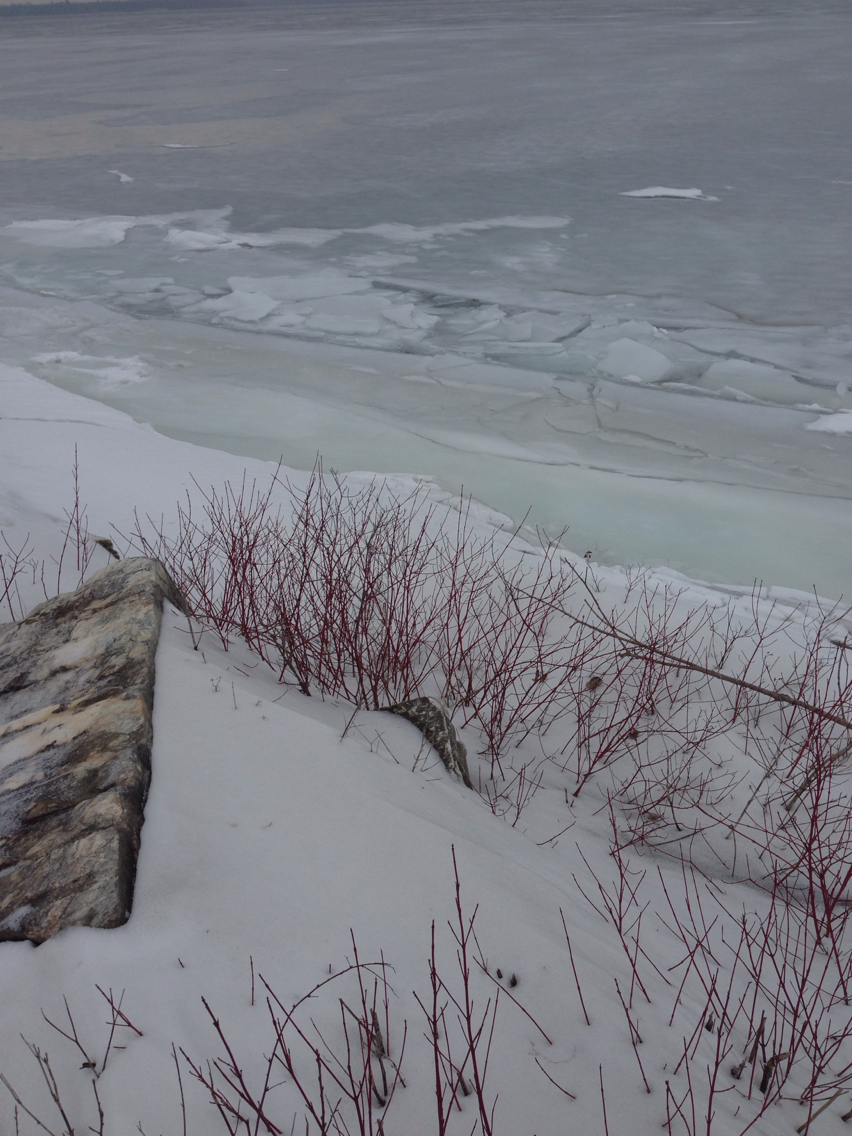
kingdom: Plantae
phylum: Tracheophyta
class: Magnoliopsida
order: Cornales
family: Cornaceae
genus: Cornus
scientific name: Cornus sericea
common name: Red-osier dogwood
